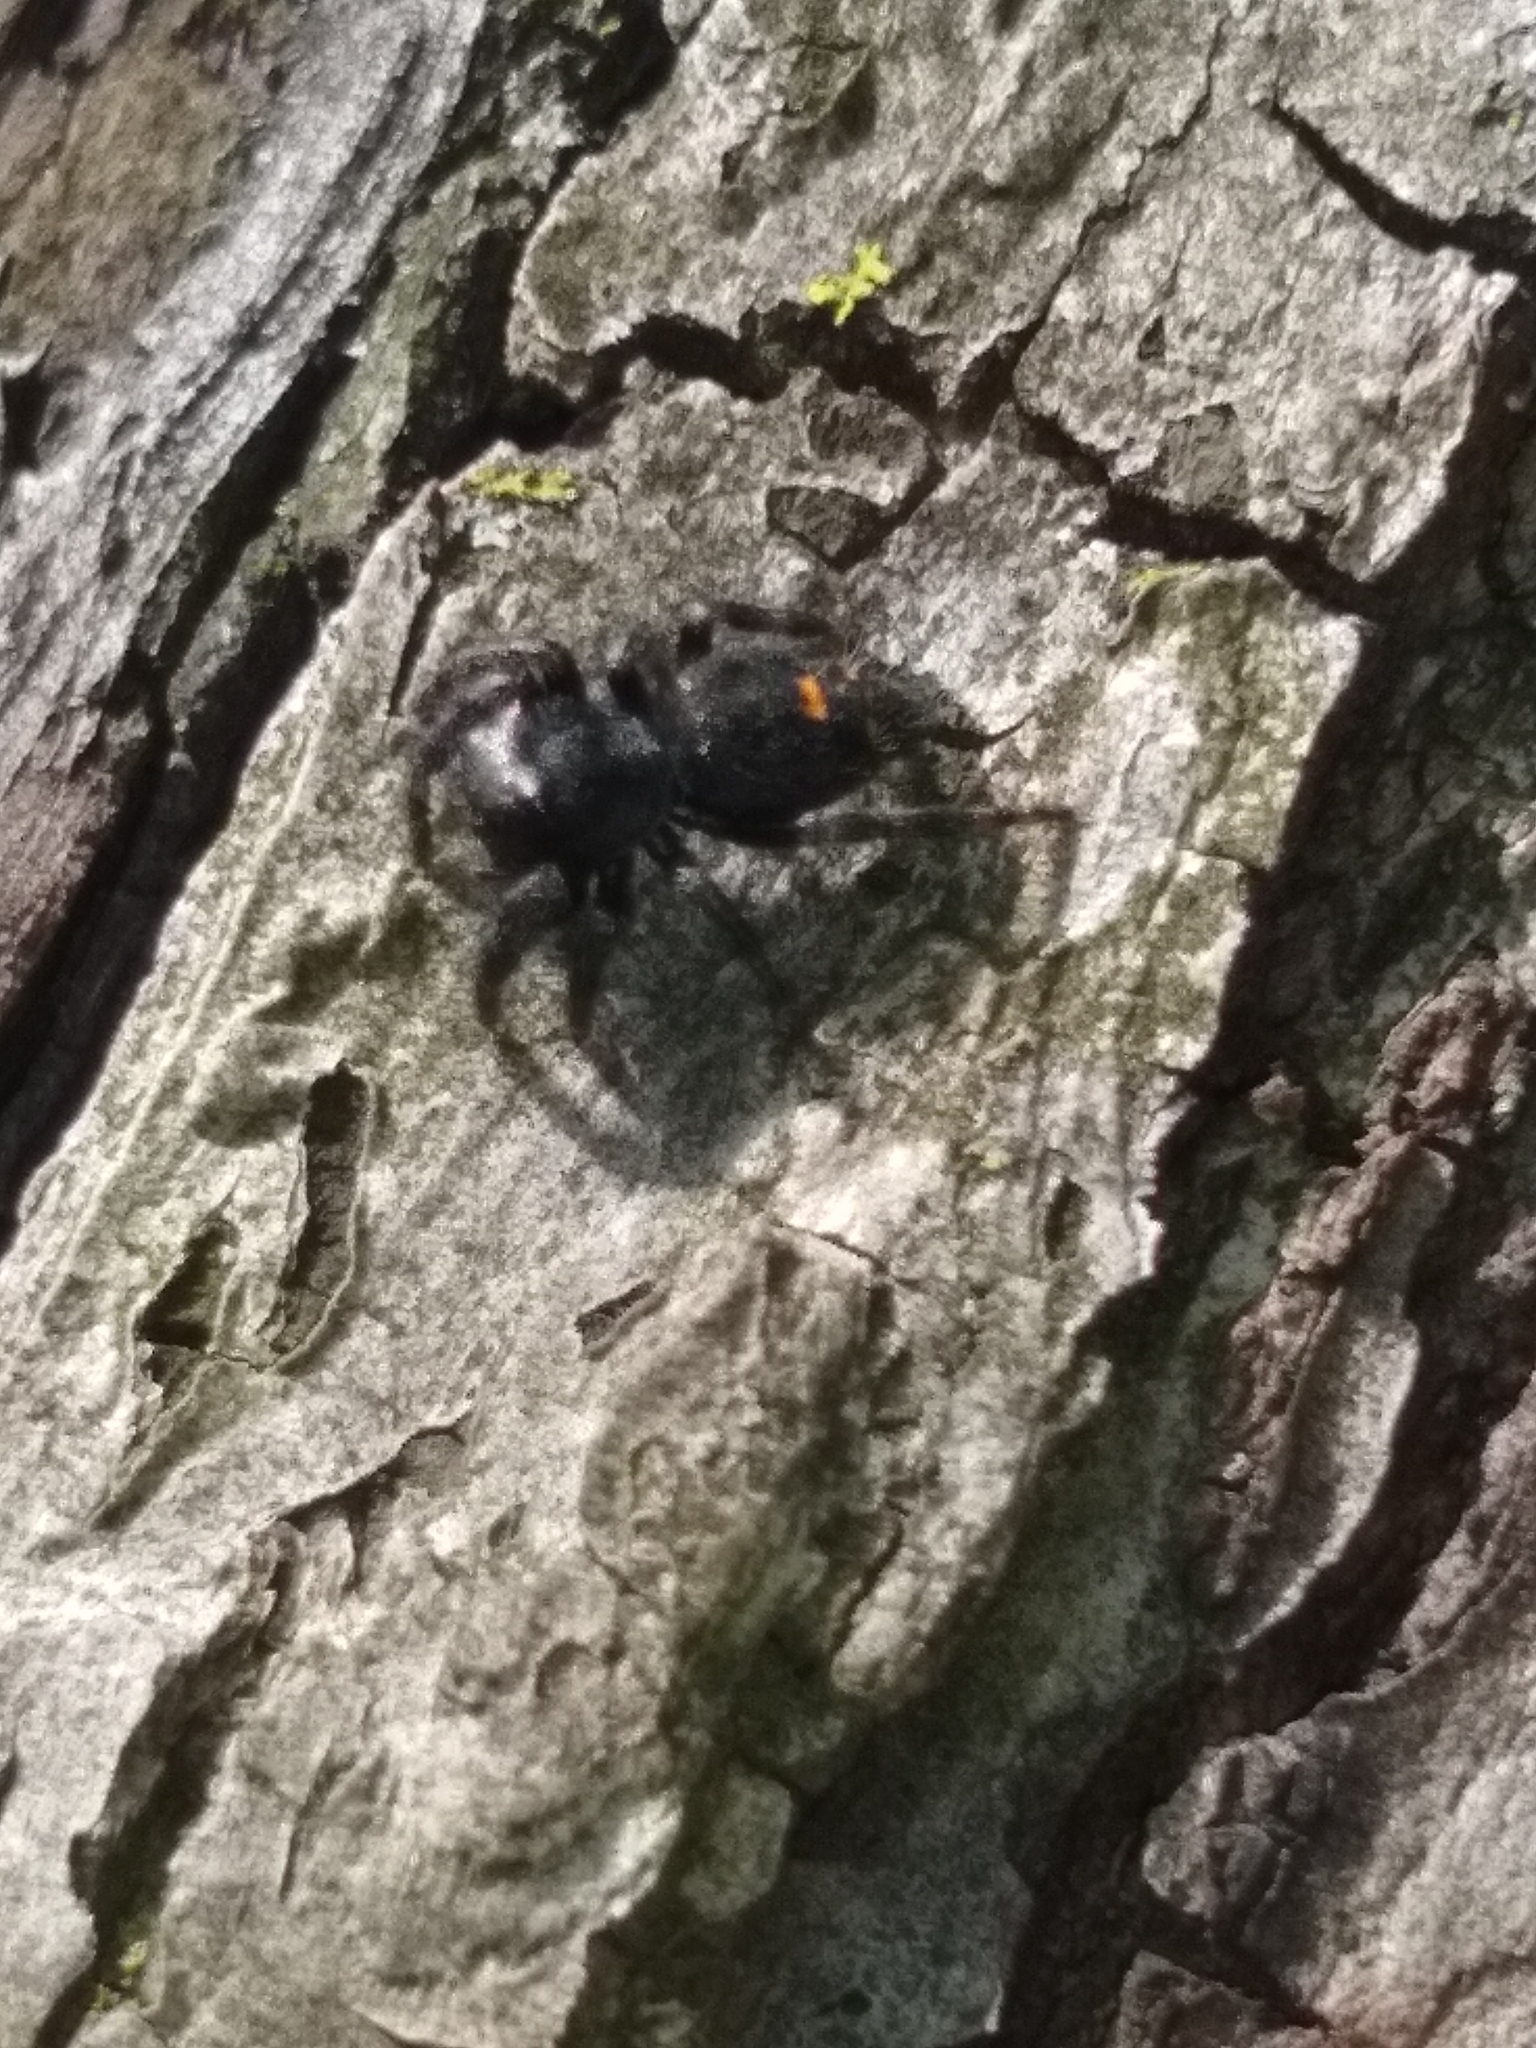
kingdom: Animalia
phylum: Arthropoda
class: Arachnida
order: Araneae
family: Salticidae
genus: Phidippus
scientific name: Phidippus audax
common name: Bold jumper
